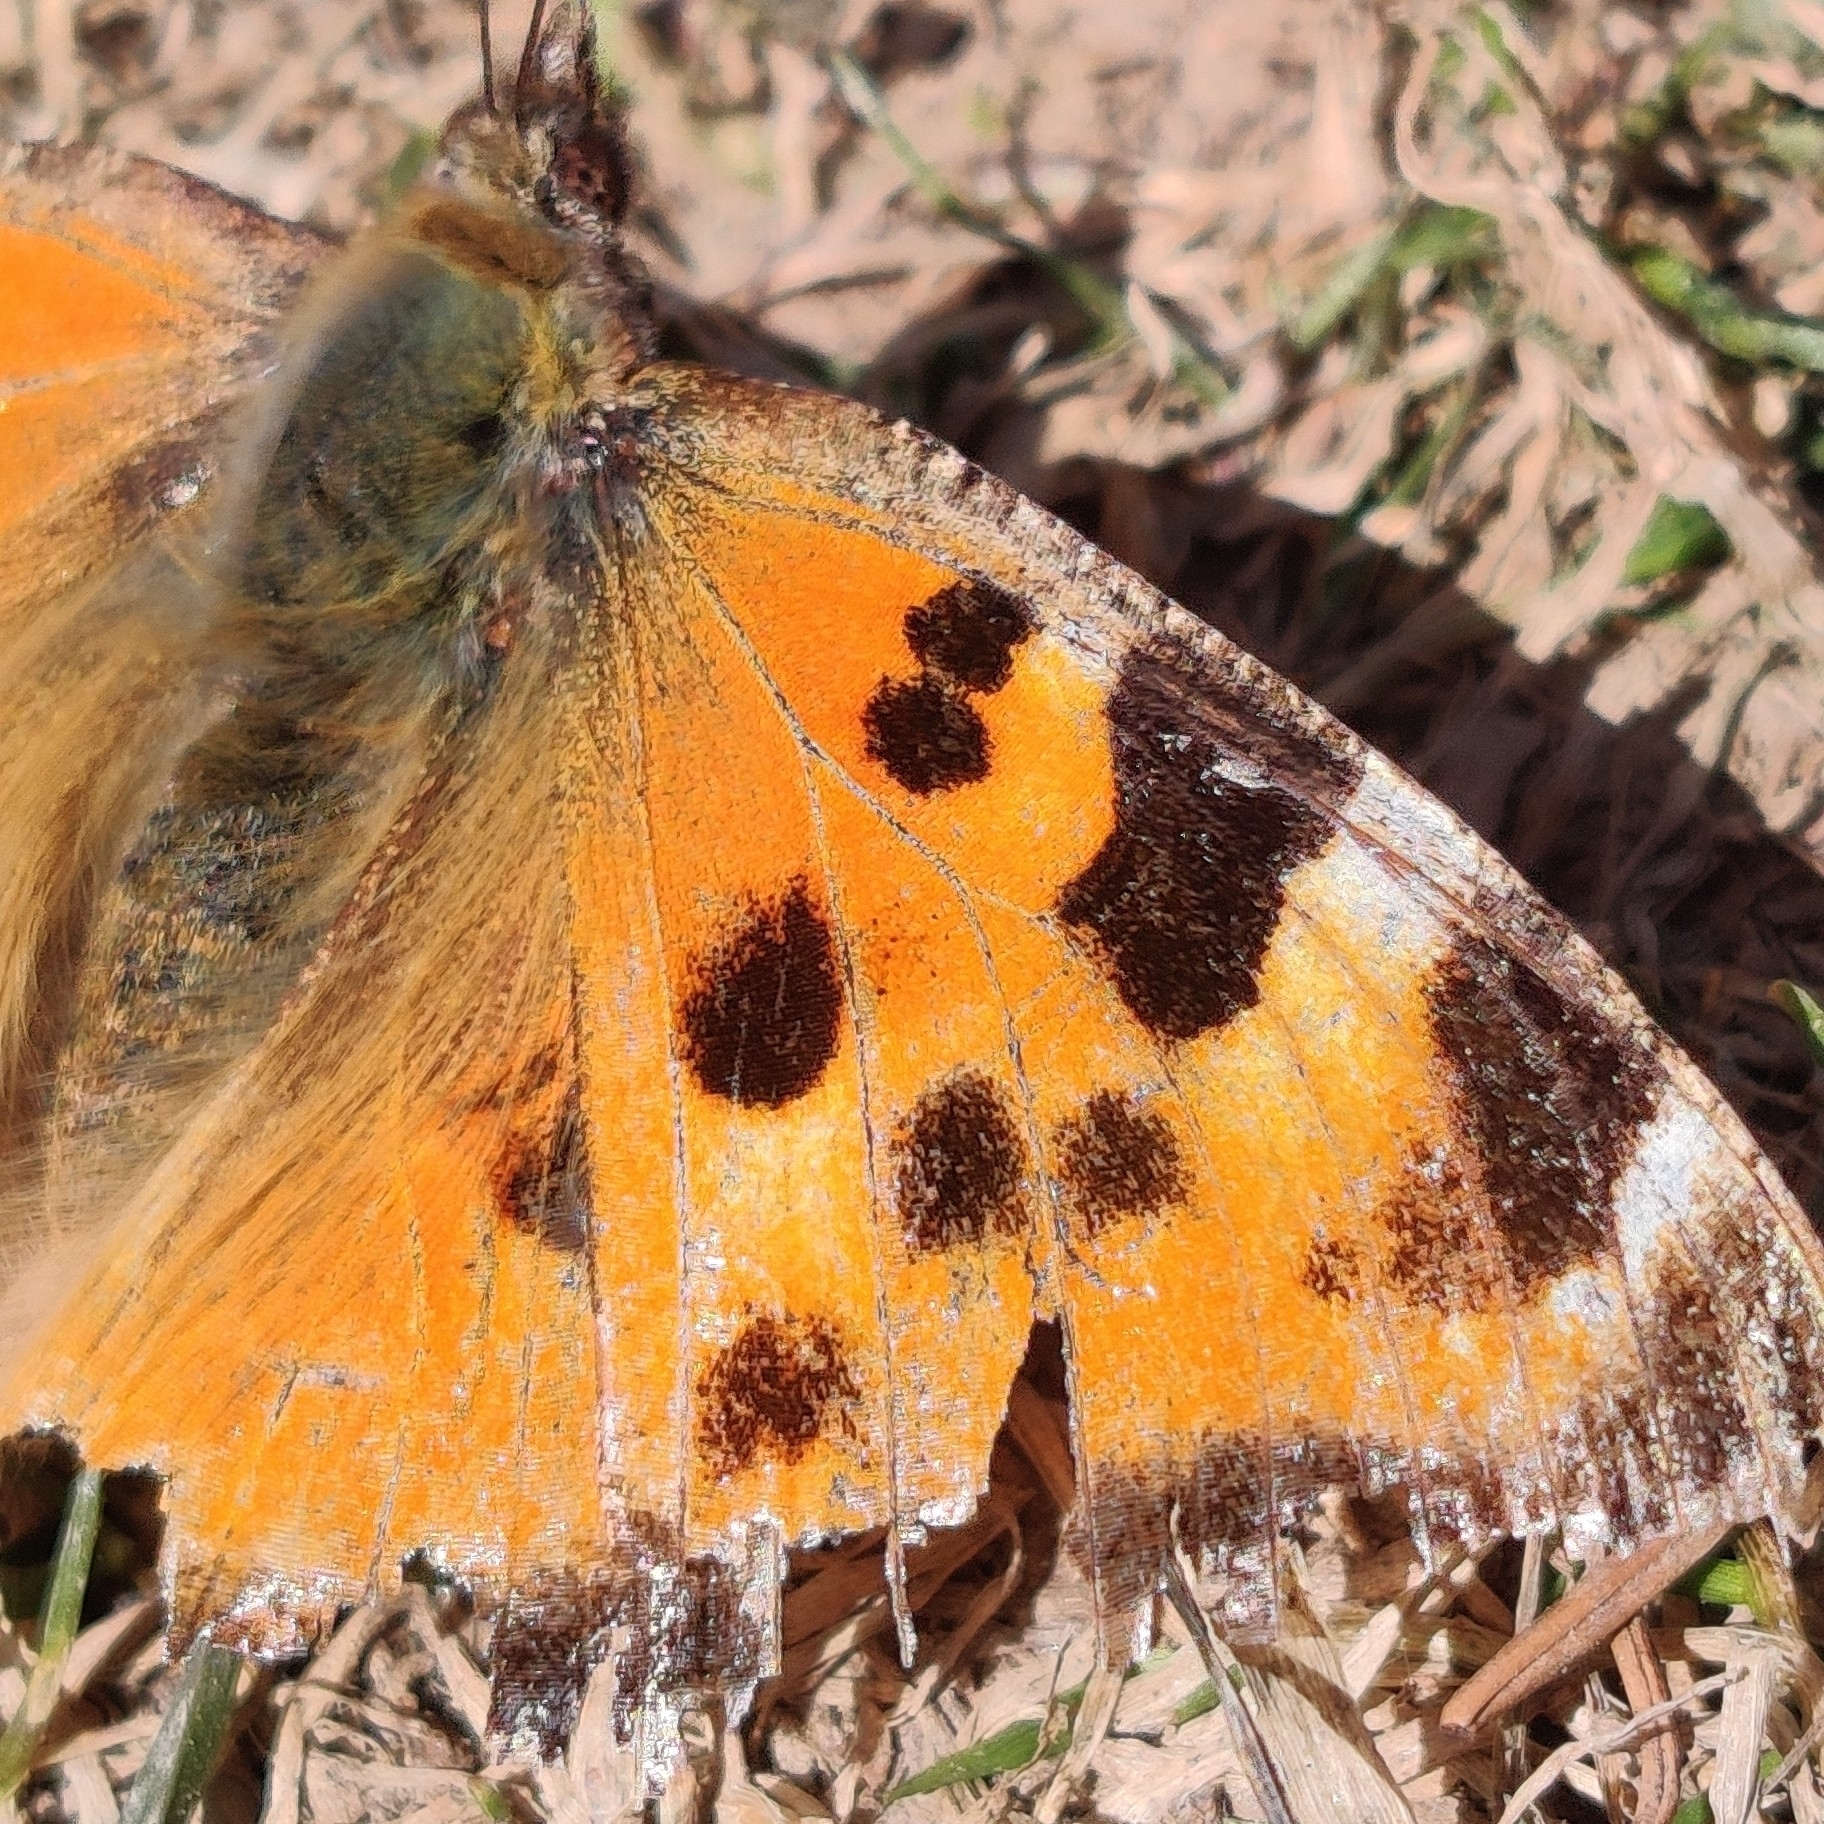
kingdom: Animalia
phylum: Arthropoda
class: Insecta
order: Lepidoptera
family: Nymphalidae
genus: Nymphalis
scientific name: Nymphalis xanthomelas
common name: Scarce tortoiseshell
